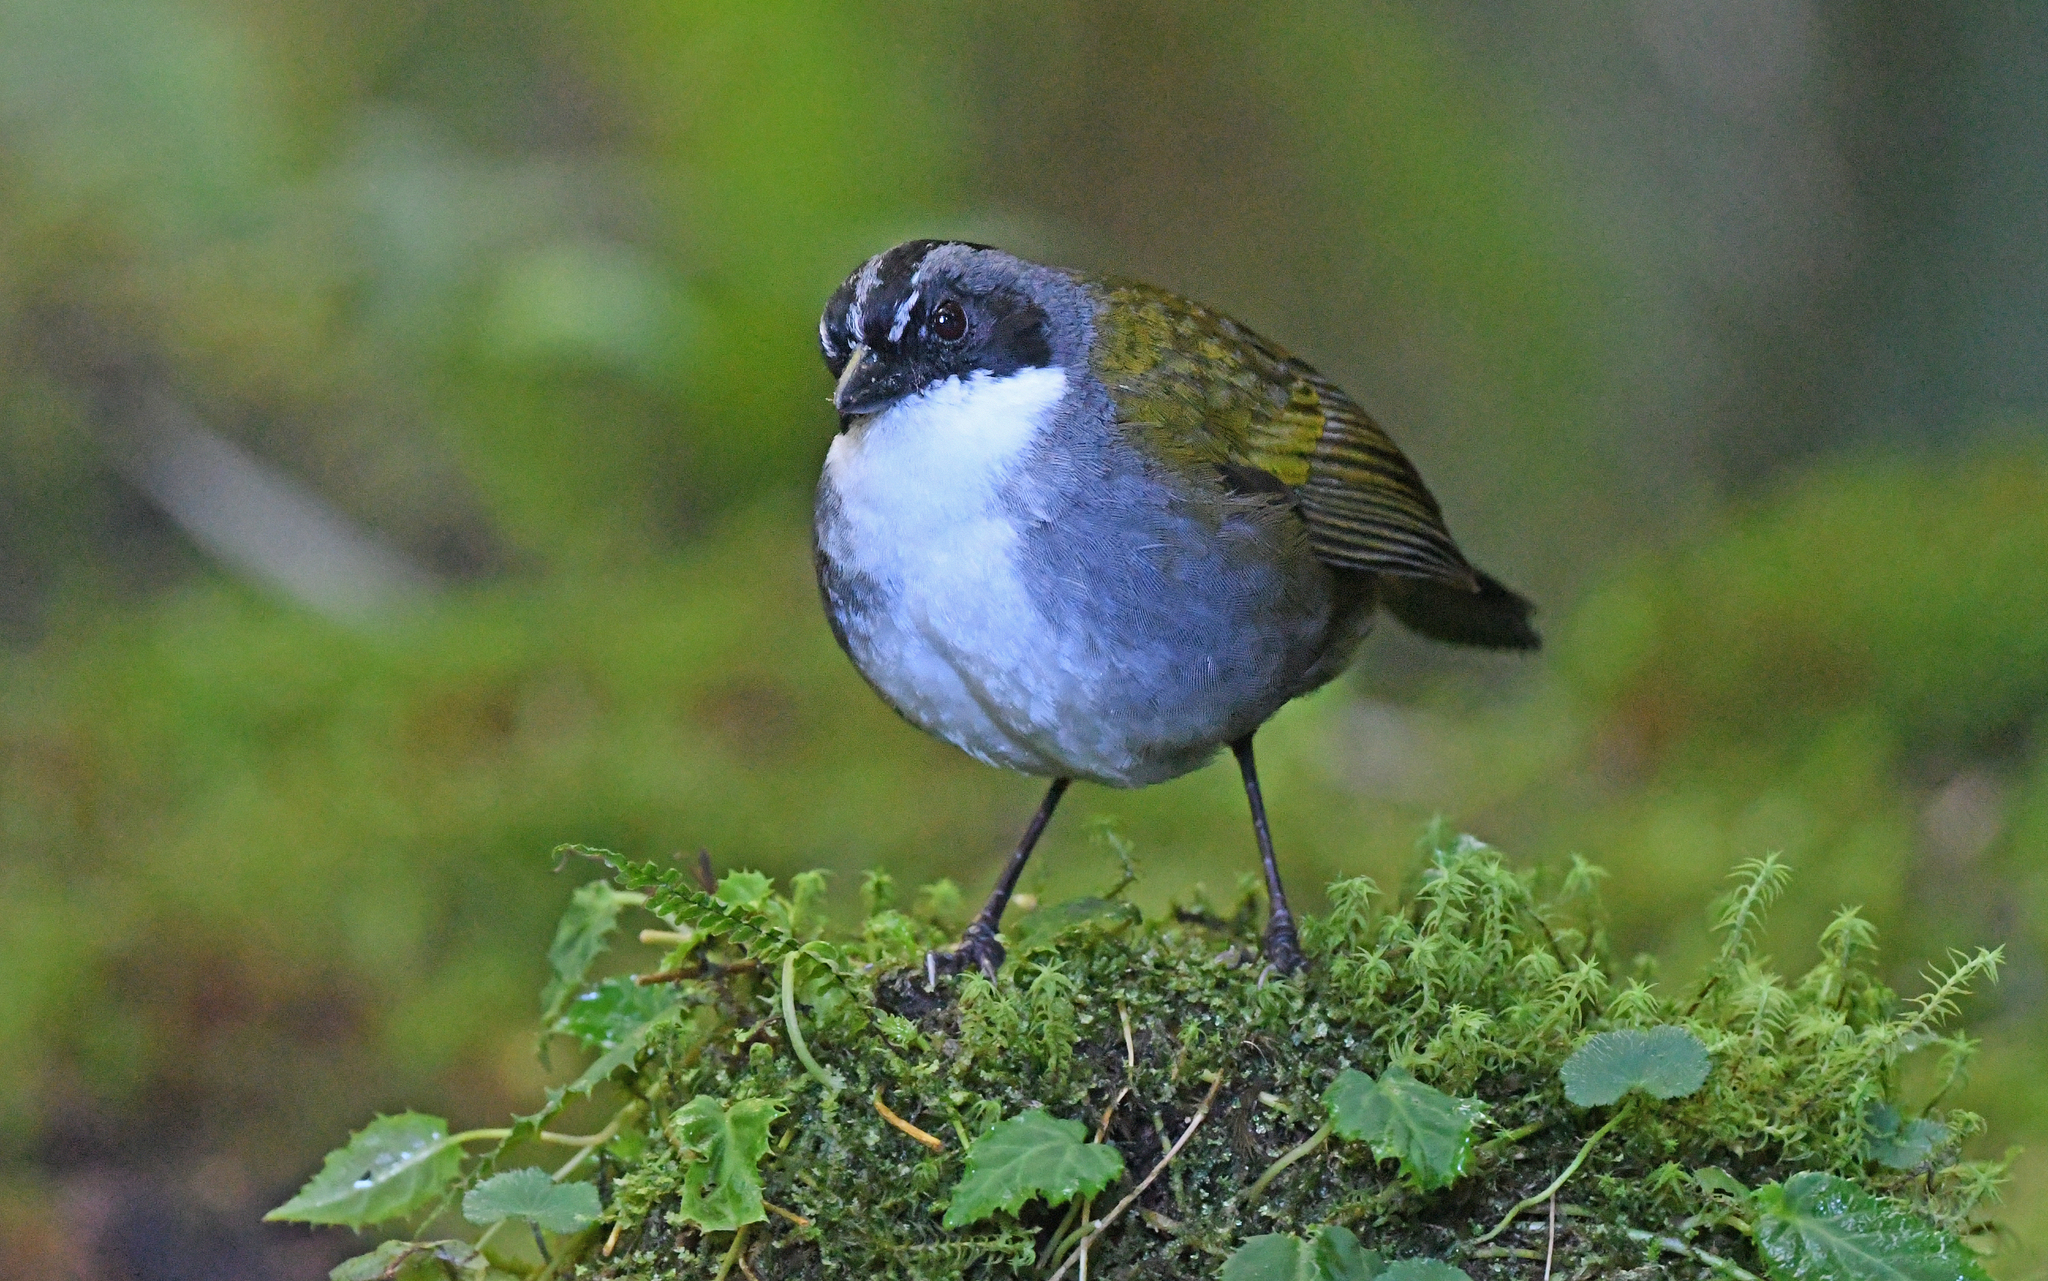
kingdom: Animalia
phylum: Chordata
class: Aves
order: Passeriformes
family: Passerellidae
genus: Arremon
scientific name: Arremon assimilis
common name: Grey-browed brushfinch
